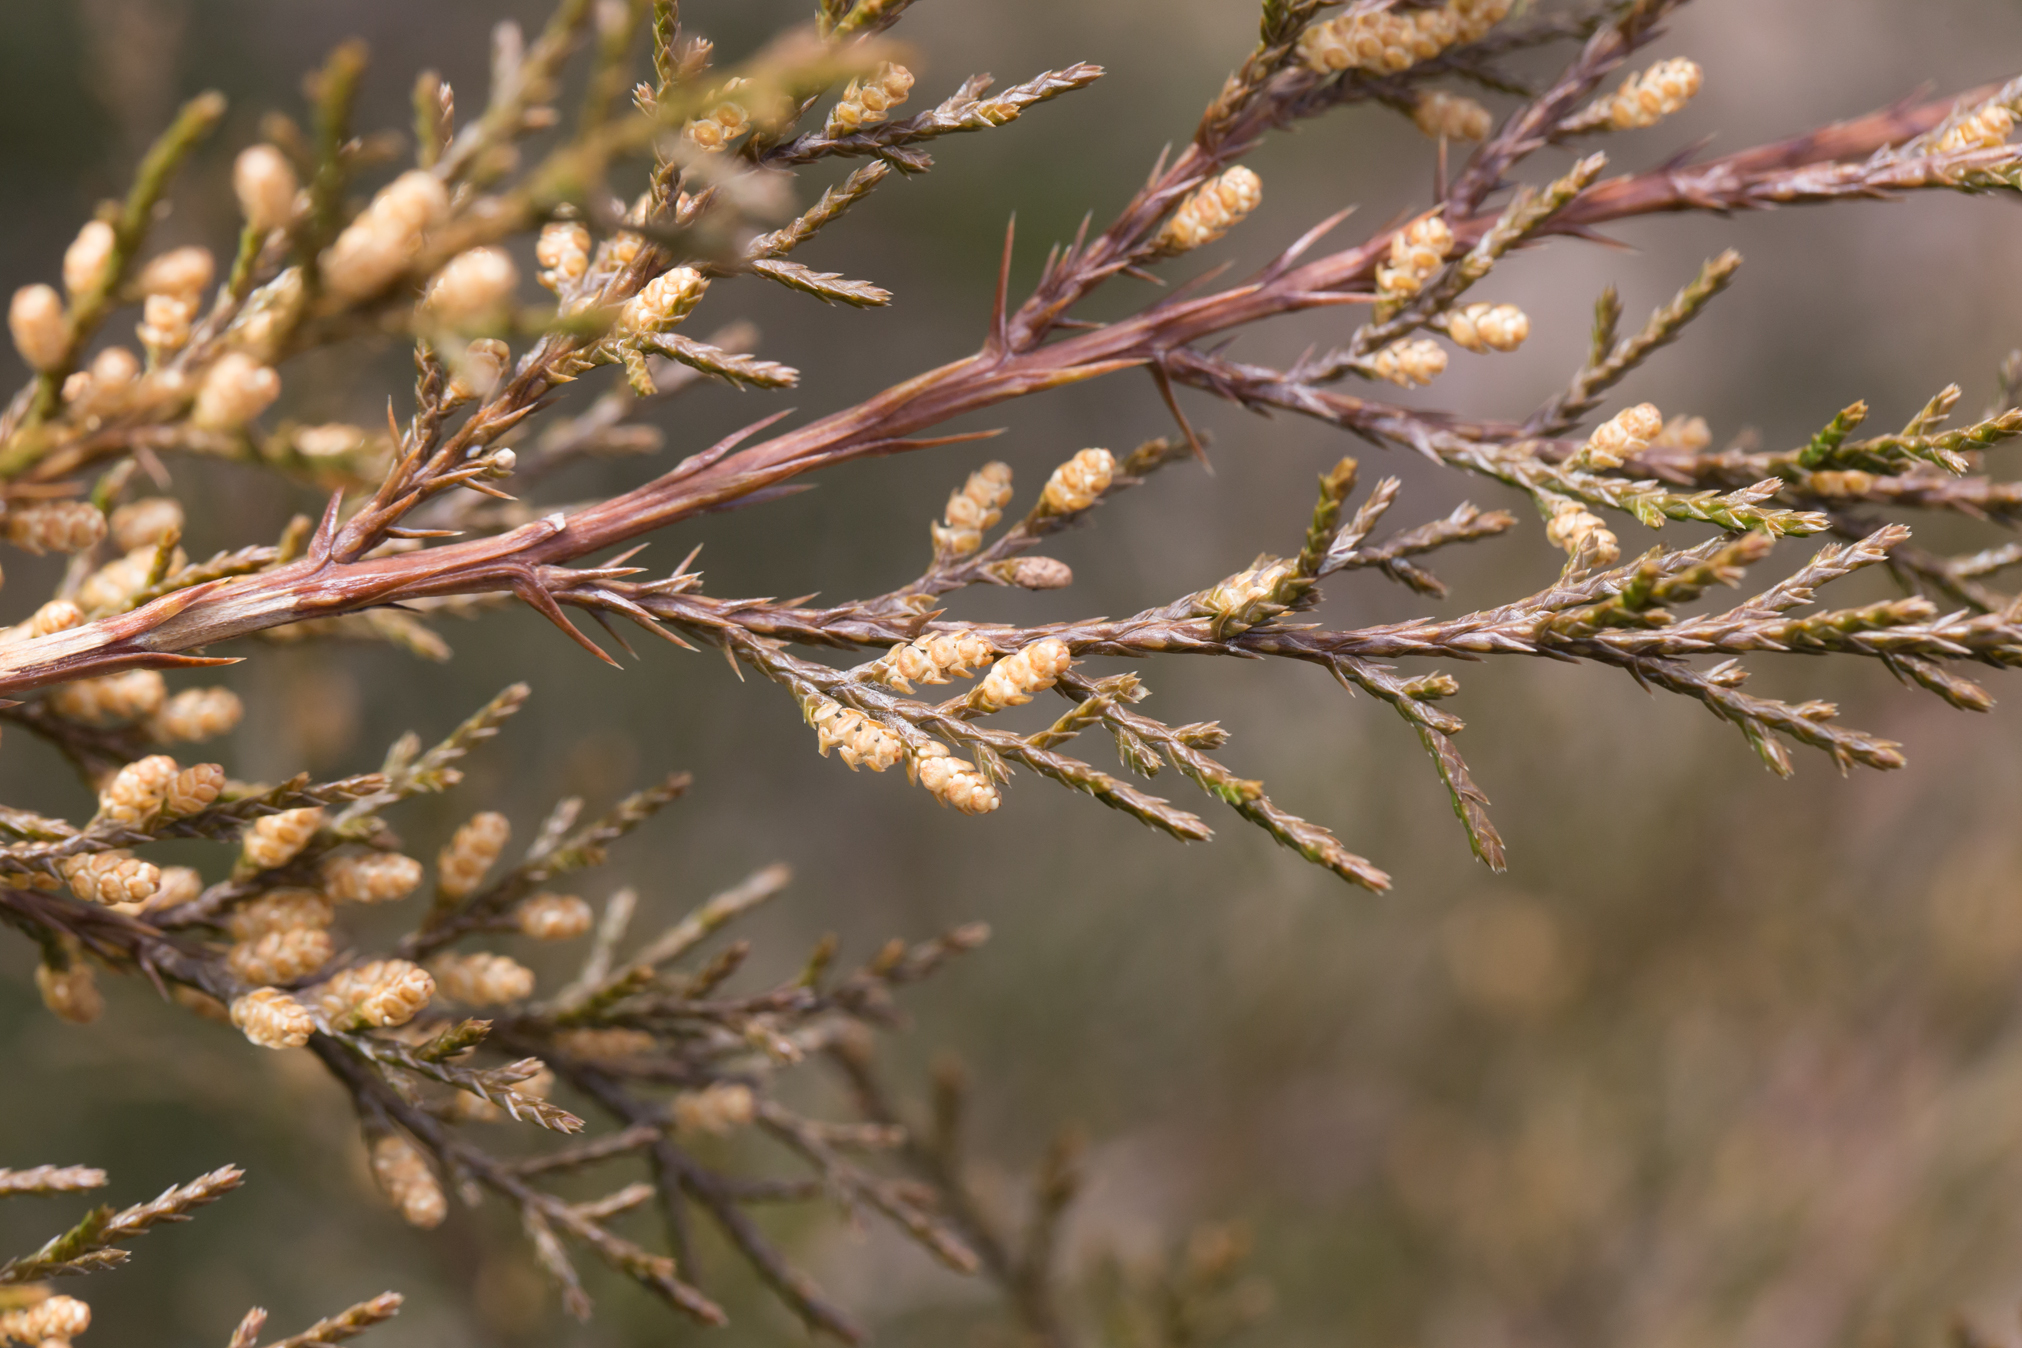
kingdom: Plantae
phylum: Tracheophyta
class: Pinopsida
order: Pinales
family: Cupressaceae
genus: Juniperus
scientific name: Juniperus virginiana
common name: Red juniper
